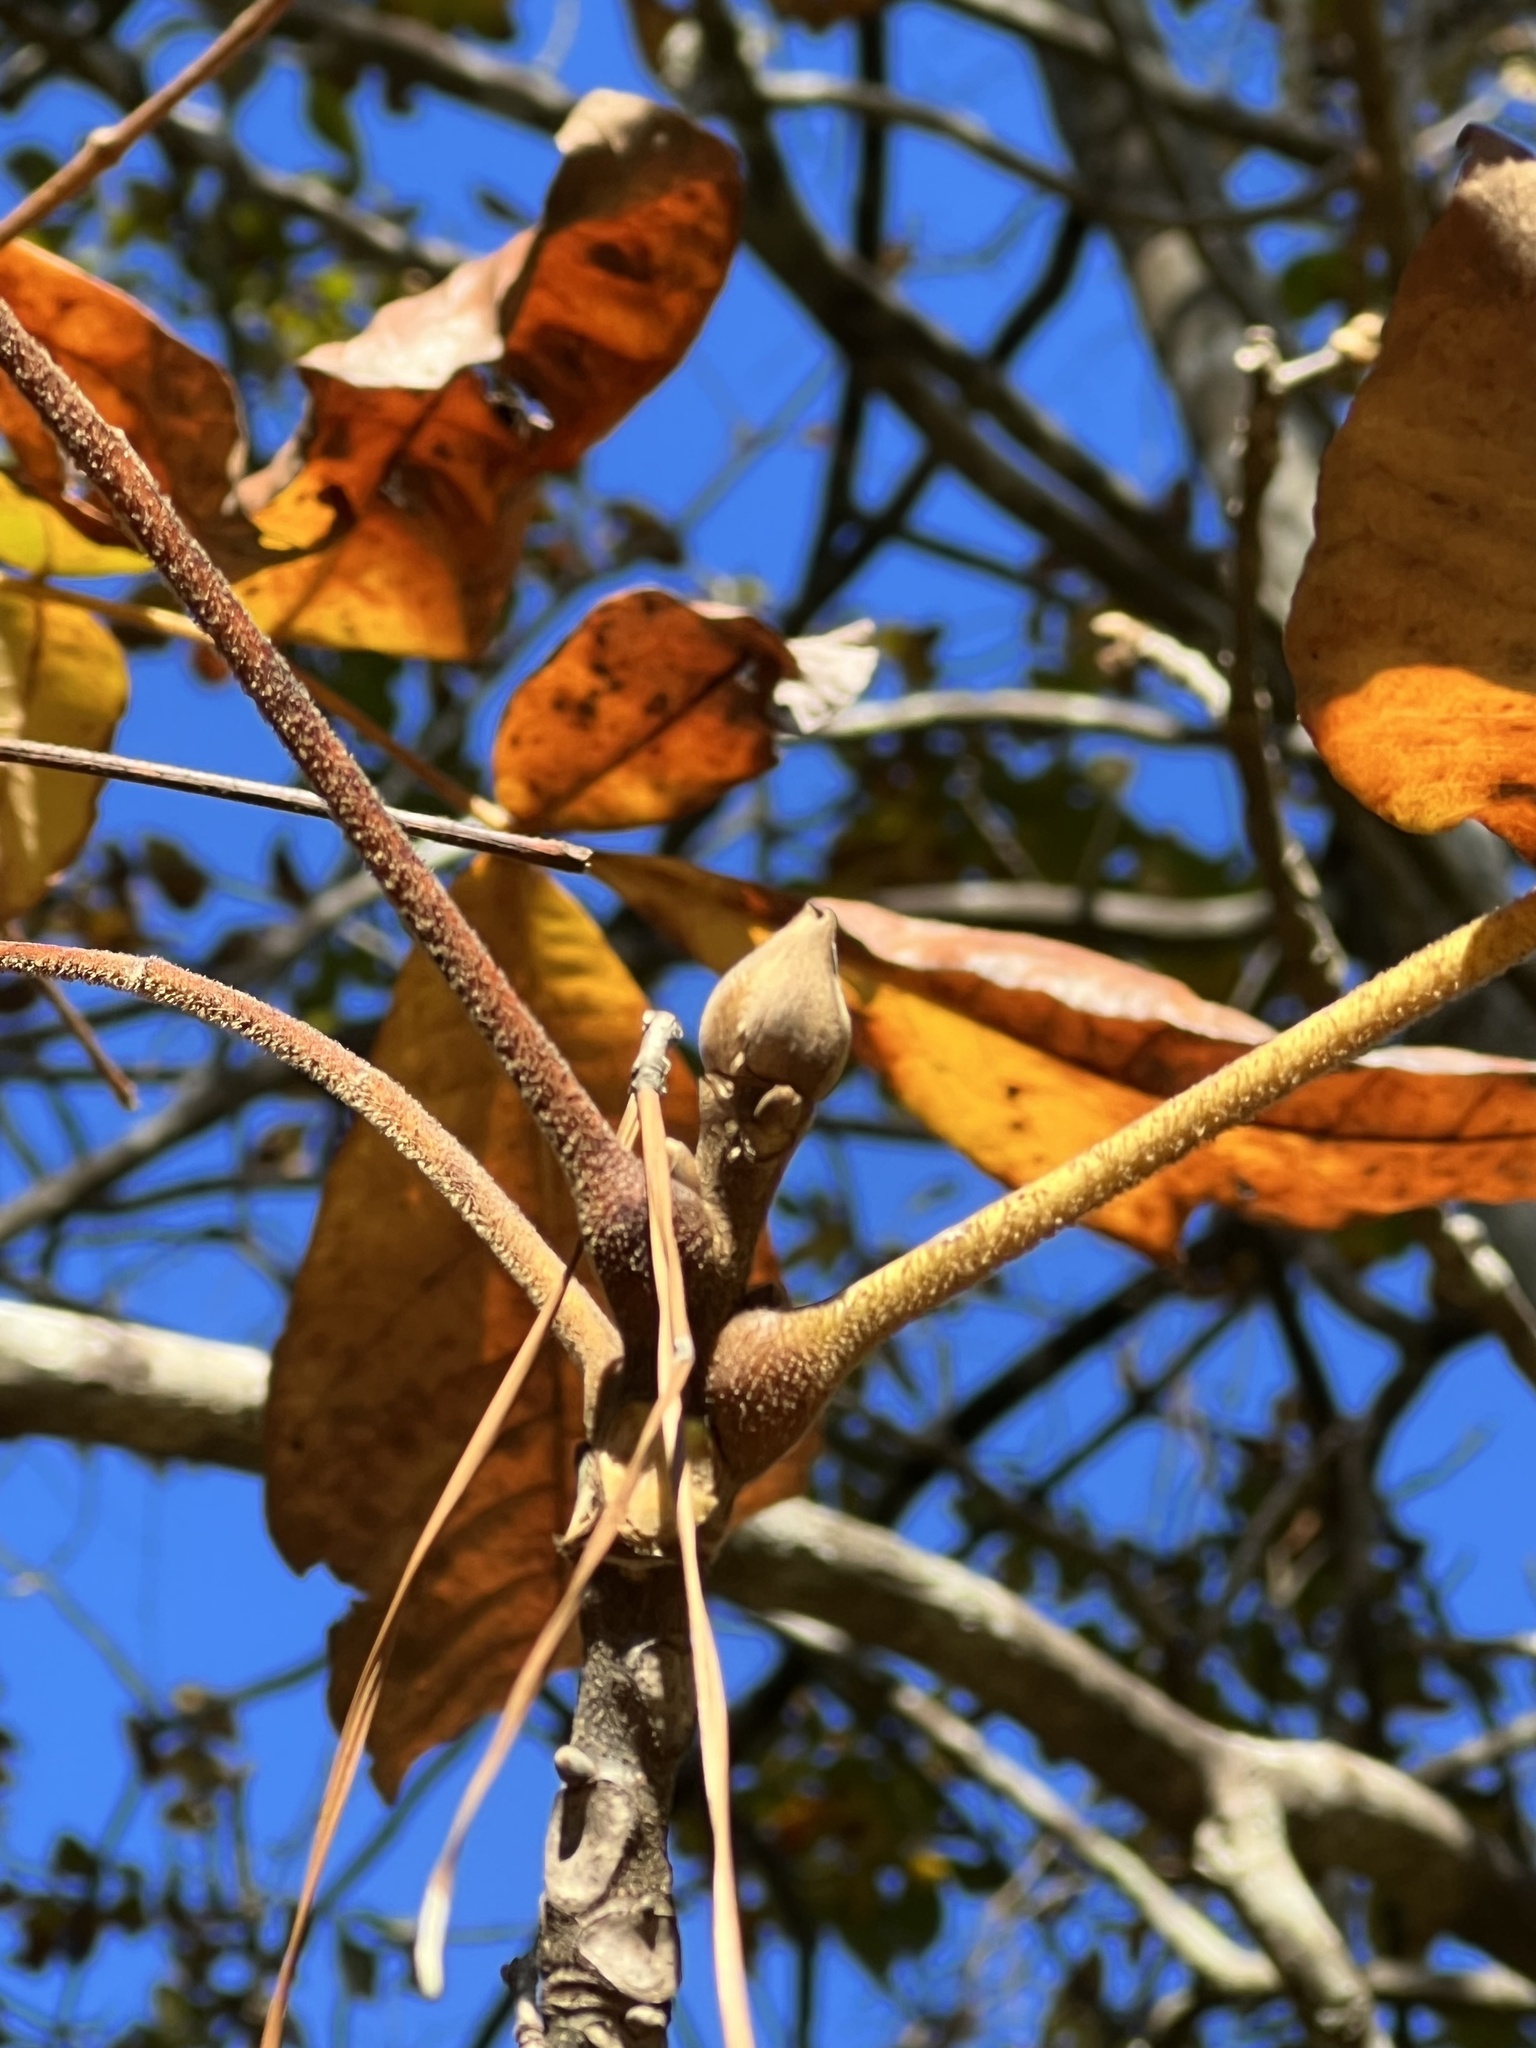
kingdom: Plantae
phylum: Tracheophyta
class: Magnoliopsida
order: Fagales
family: Juglandaceae
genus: Carya
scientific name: Carya alba
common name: Mockernut hickory
